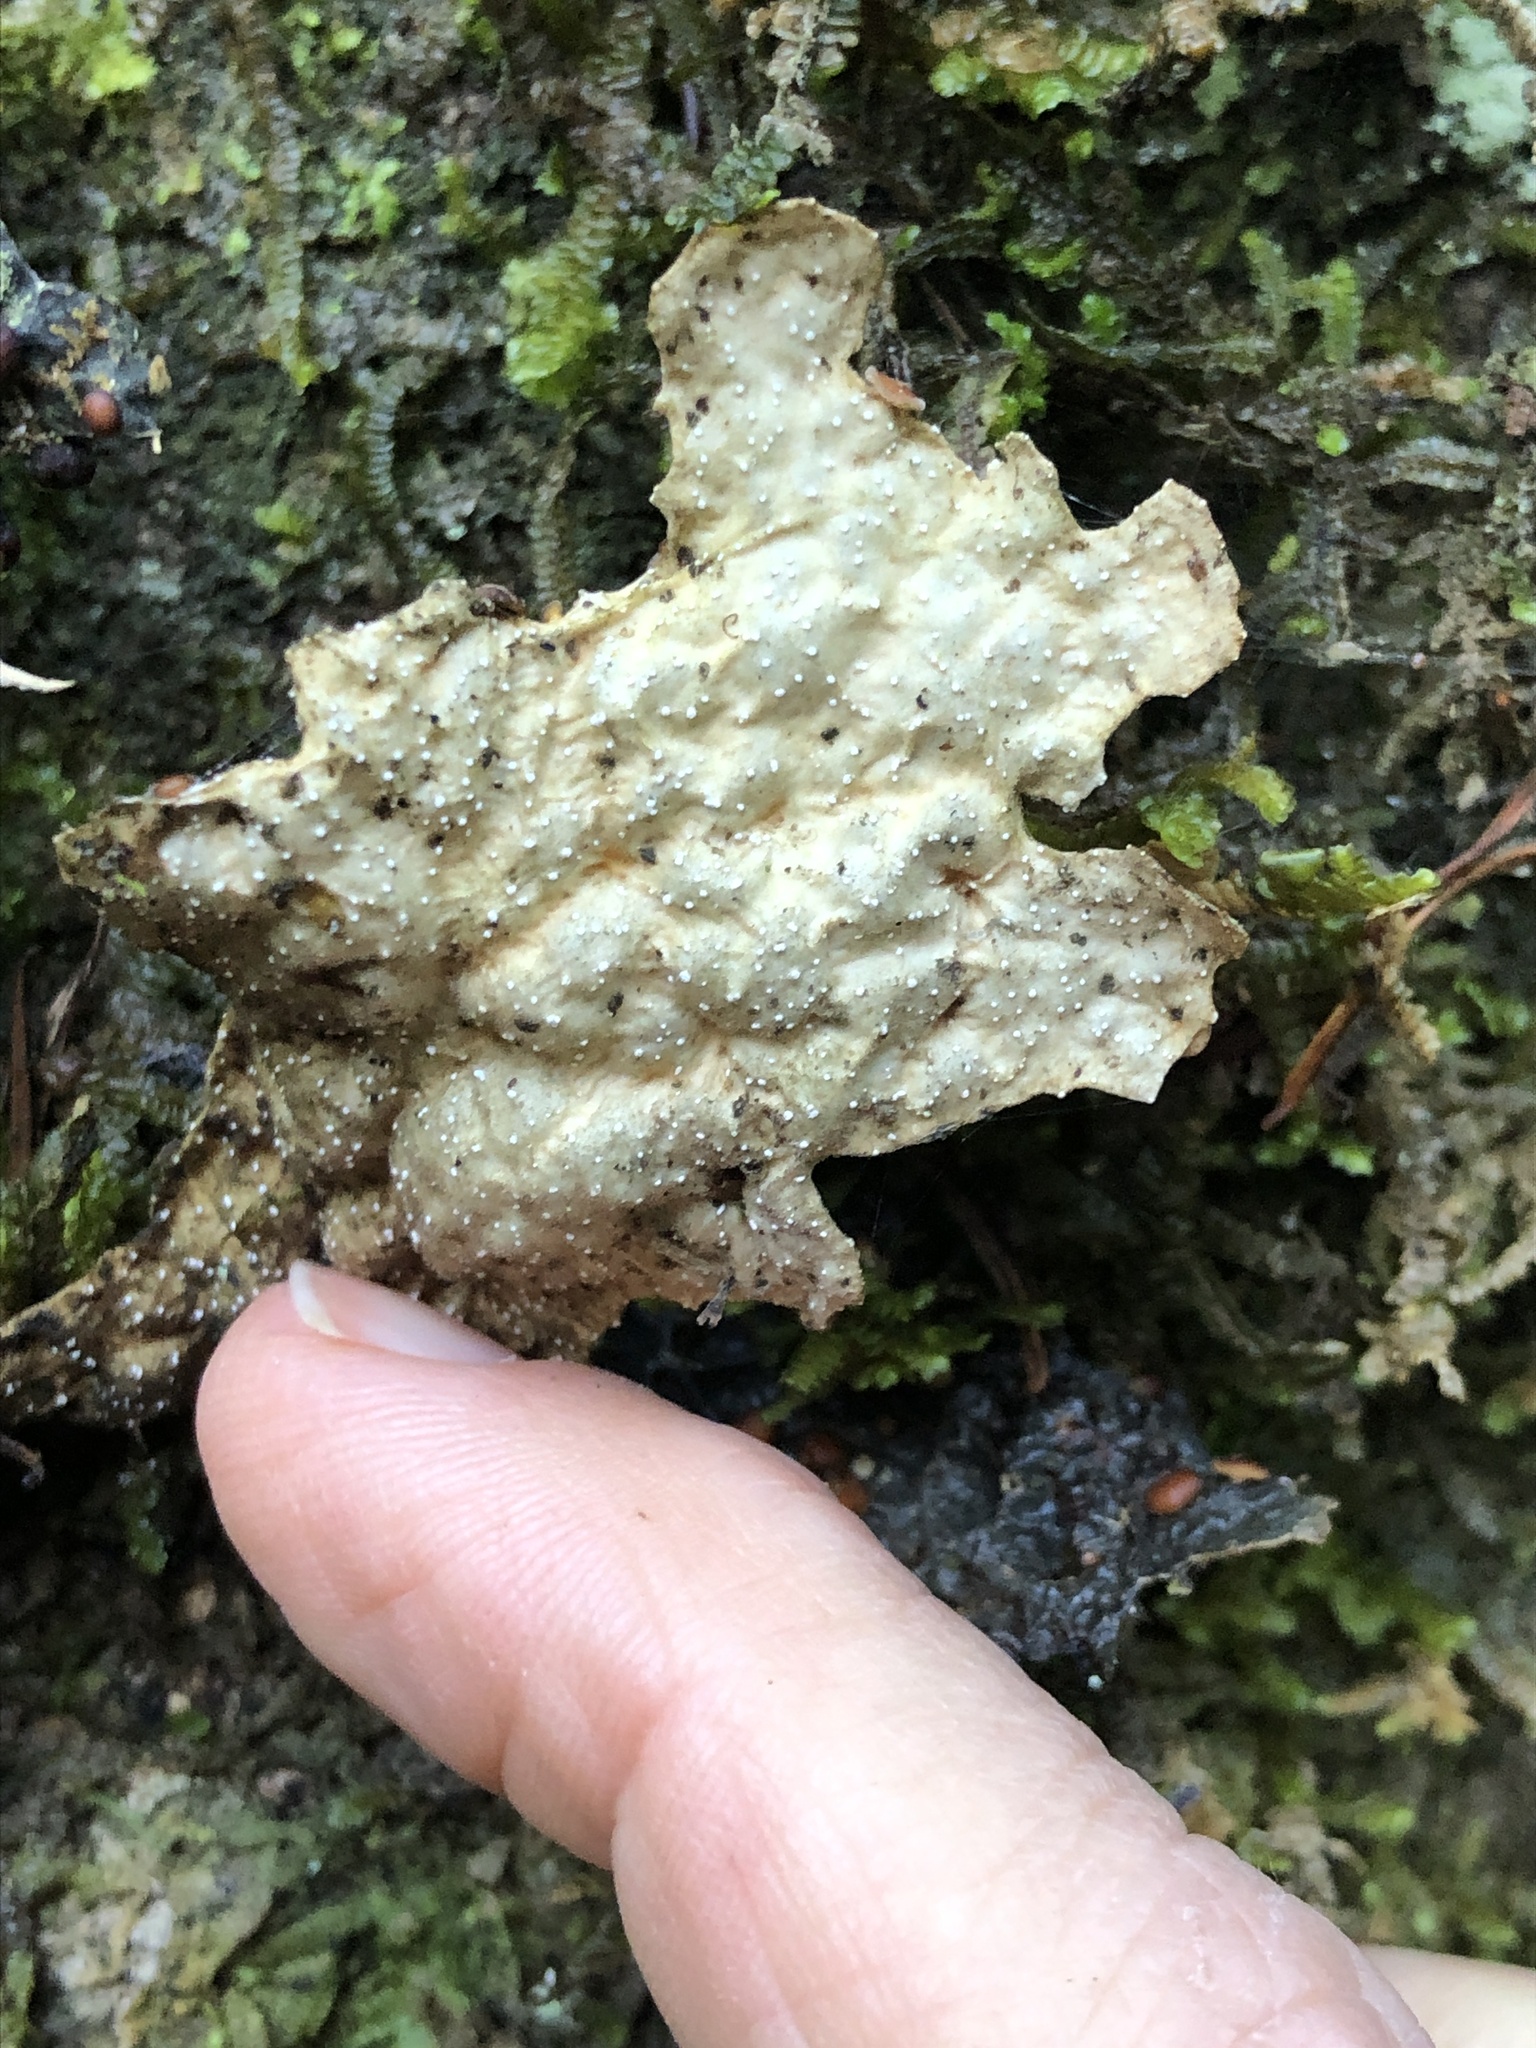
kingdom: Fungi
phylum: Ascomycota
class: Lecanoromycetes
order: Peltigerales
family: Lobariaceae
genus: Lobaria
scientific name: Lobaria anthraspis
